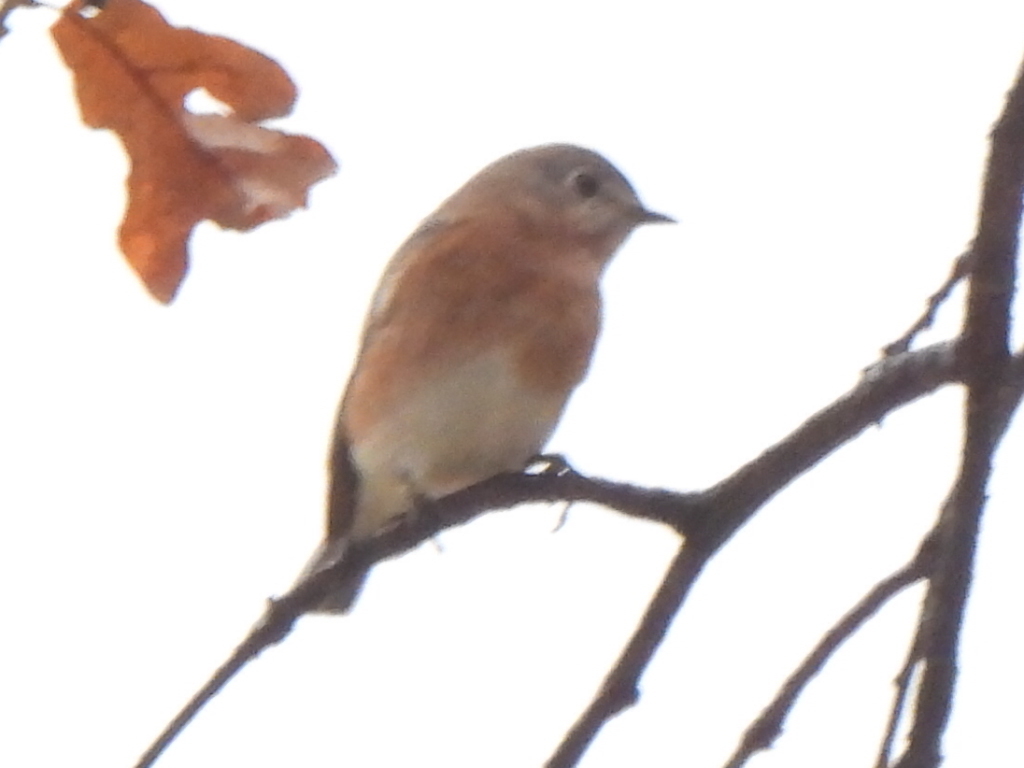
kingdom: Animalia
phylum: Chordata
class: Aves
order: Passeriformes
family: Turdidae
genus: Sialia
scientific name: Sialia sialis
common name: Eastern bluebird
